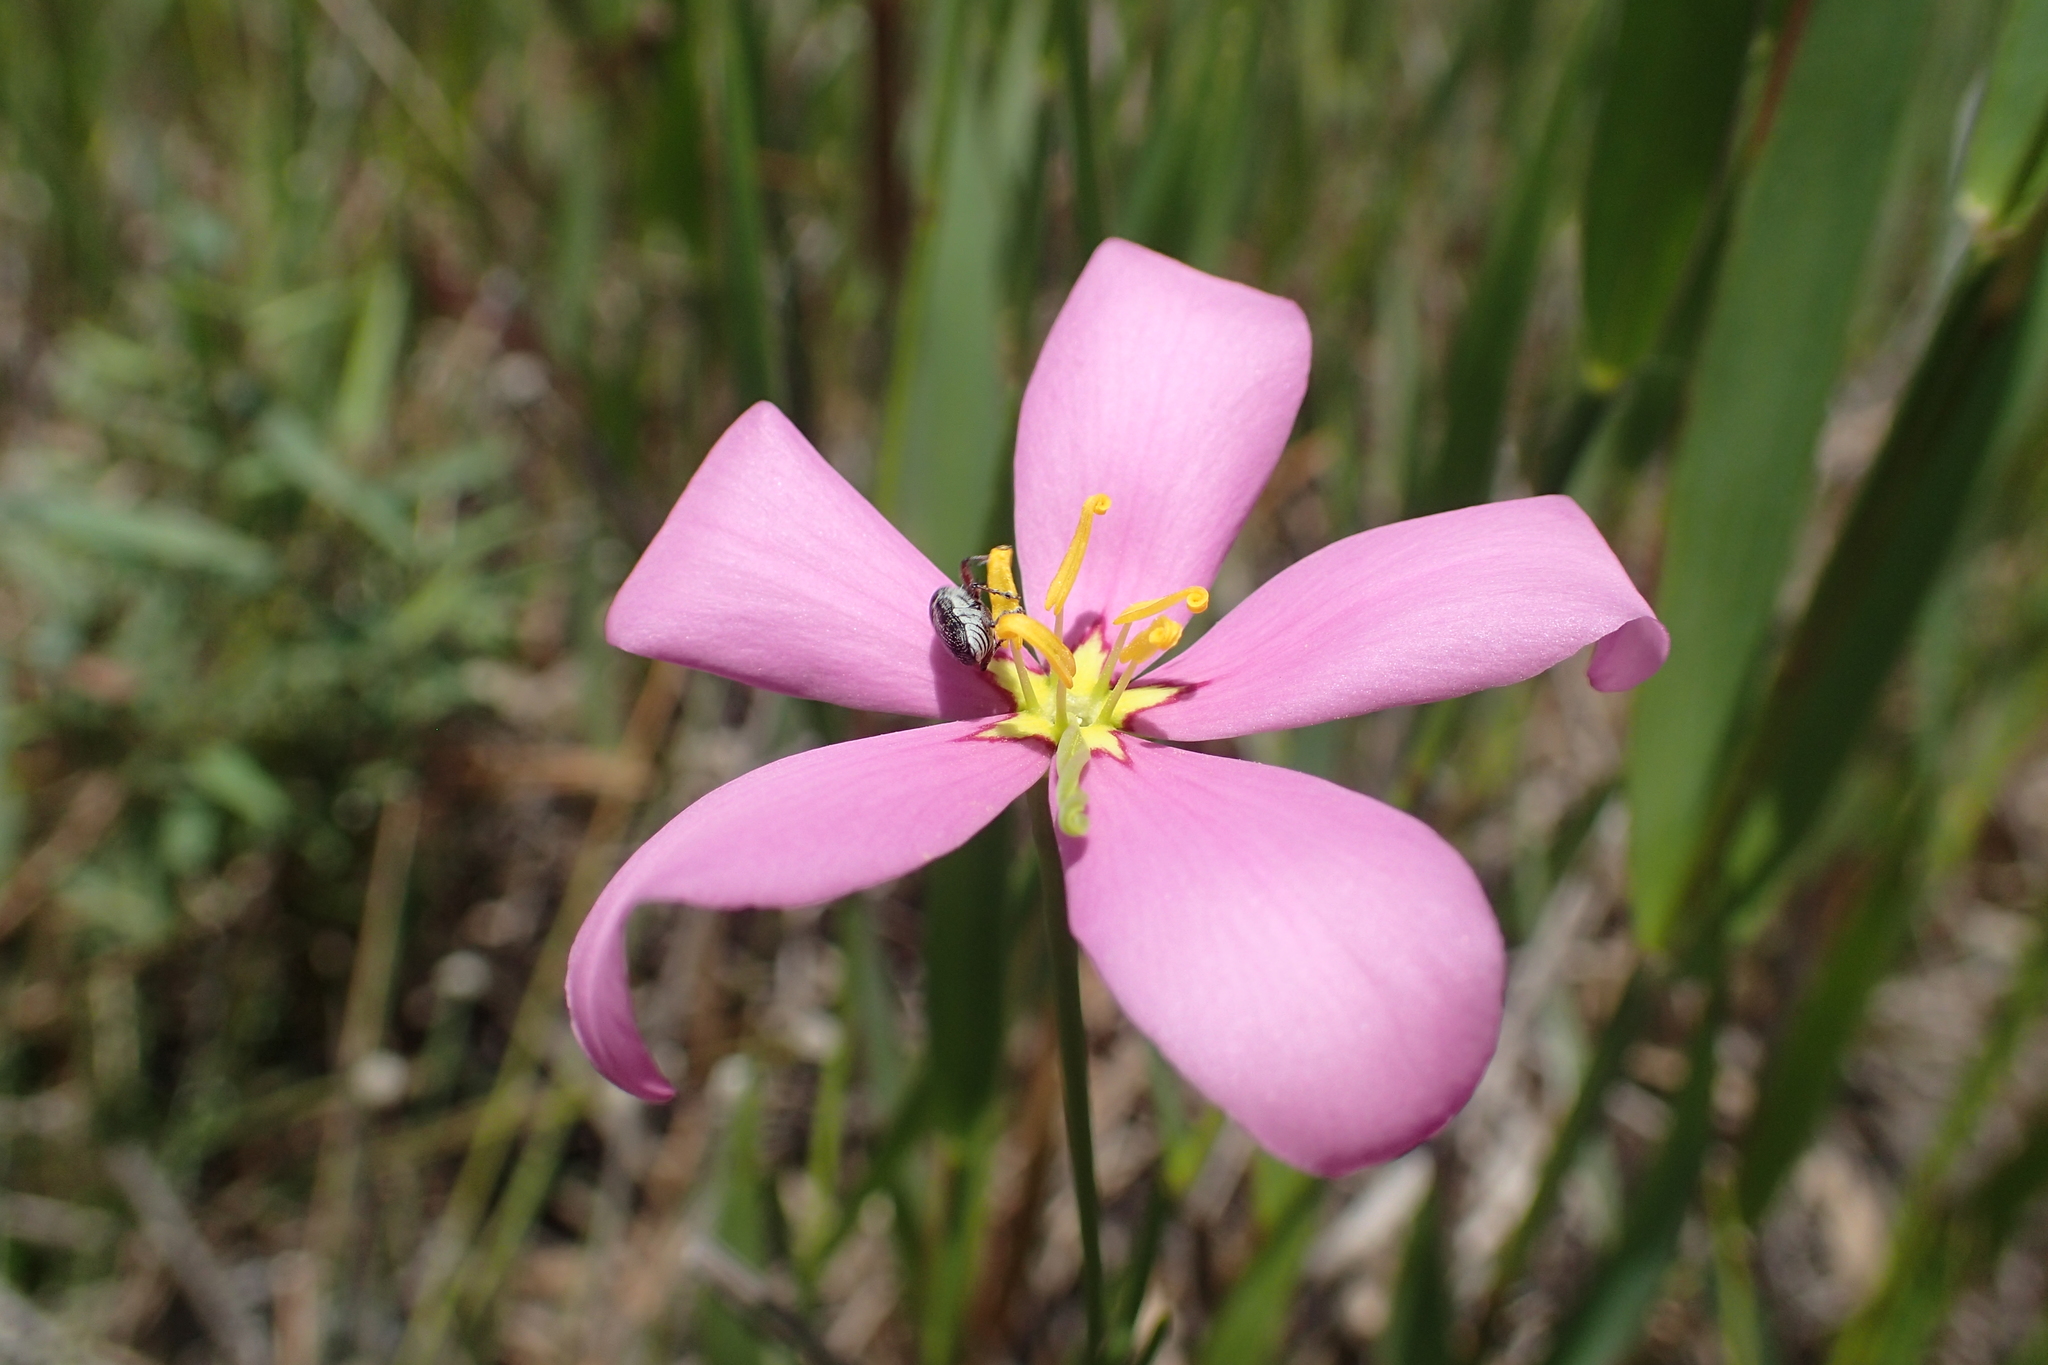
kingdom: Plantae
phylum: Tracheophyta
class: Magnoliopsida
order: Gentianales
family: Gentianaceae
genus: Sabatia
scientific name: Sabatia grandiflora
